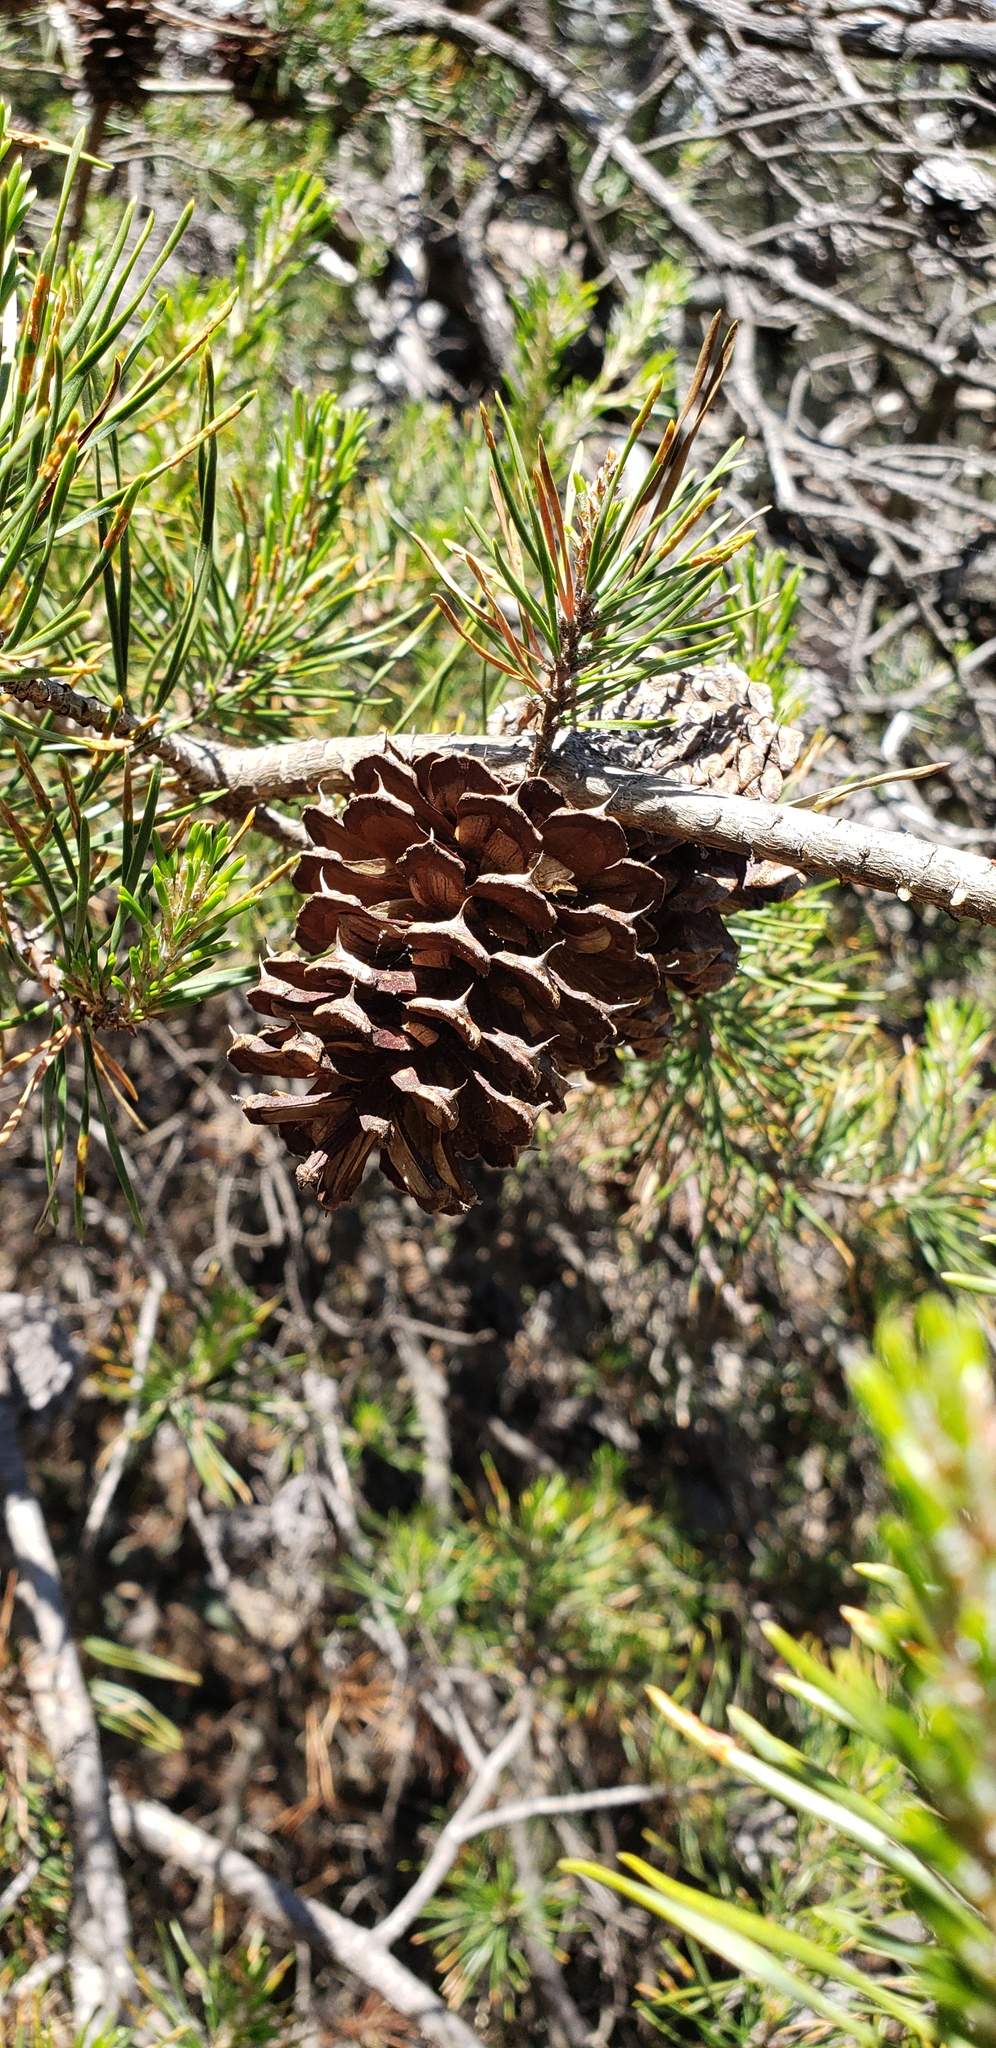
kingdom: Plantae
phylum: Tracheophyta
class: Pinopsida
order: Pinales
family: Pinaceae
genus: Pinus
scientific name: Pinus pungens
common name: Hickory pine
